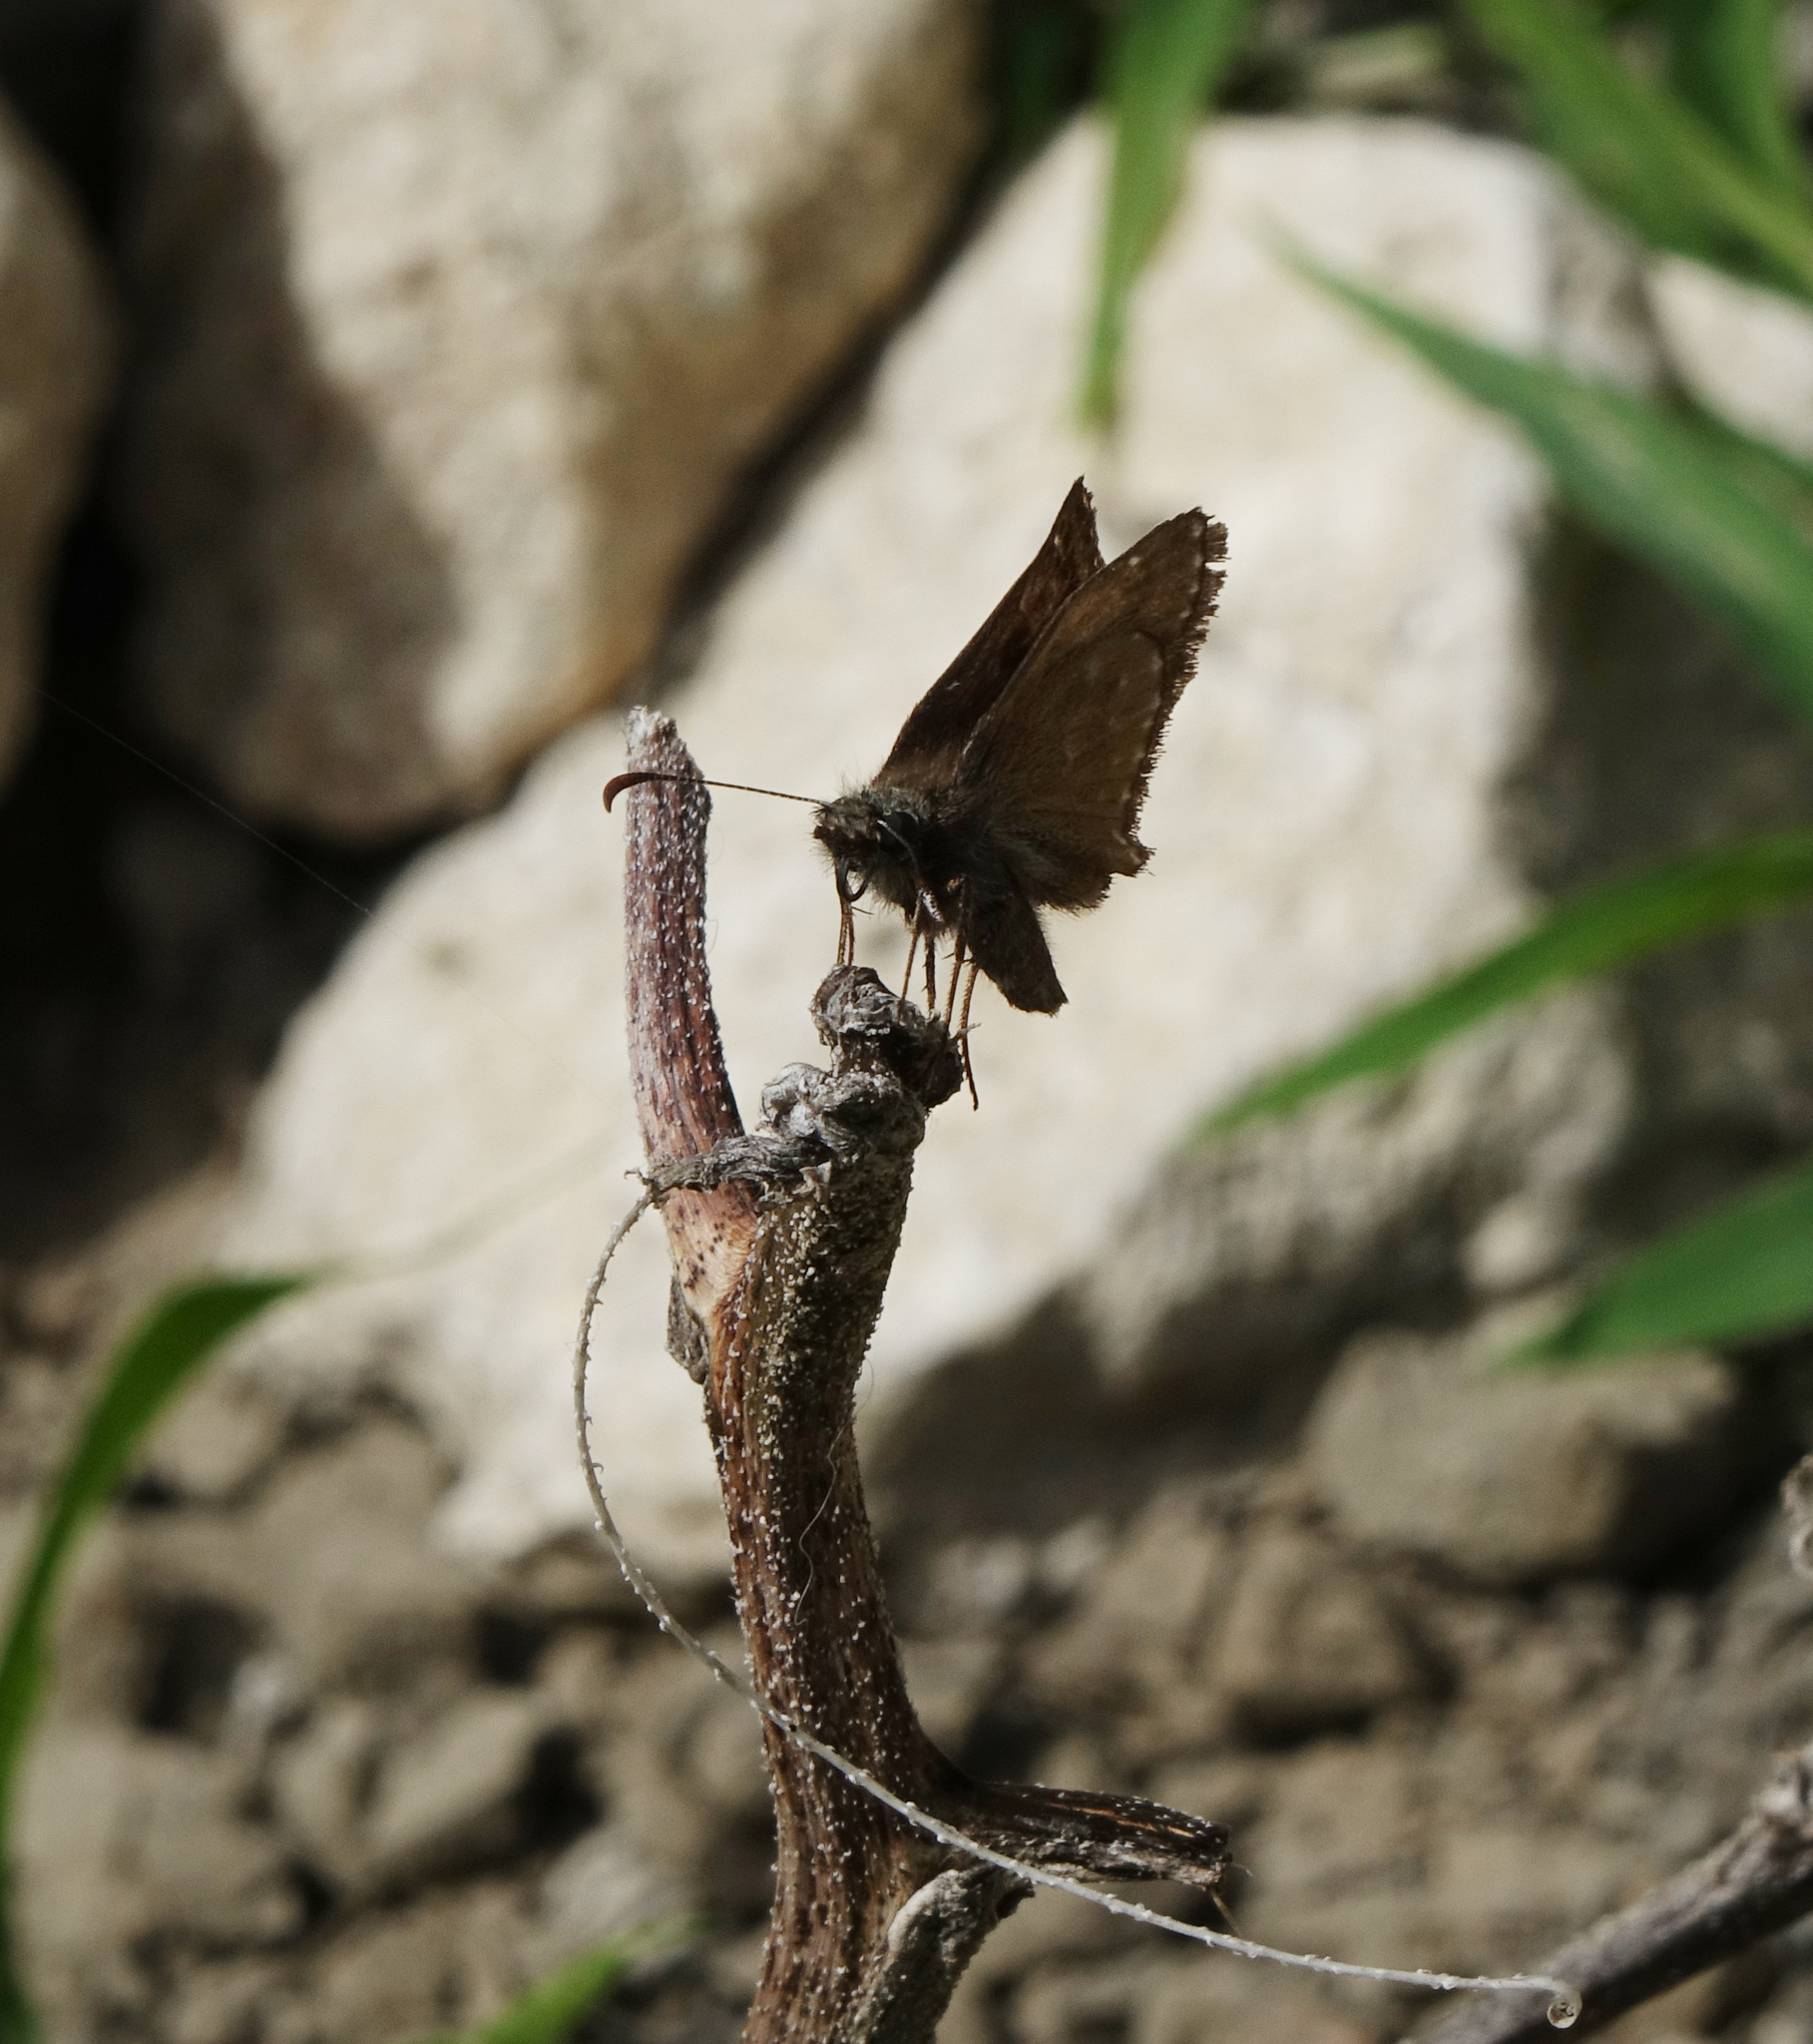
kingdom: Animalia
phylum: Arthropoda
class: Insecta
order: Lepidoptera
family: Hesperiidae
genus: Erynnis
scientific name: Erynnis tages
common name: Dingy skipper
